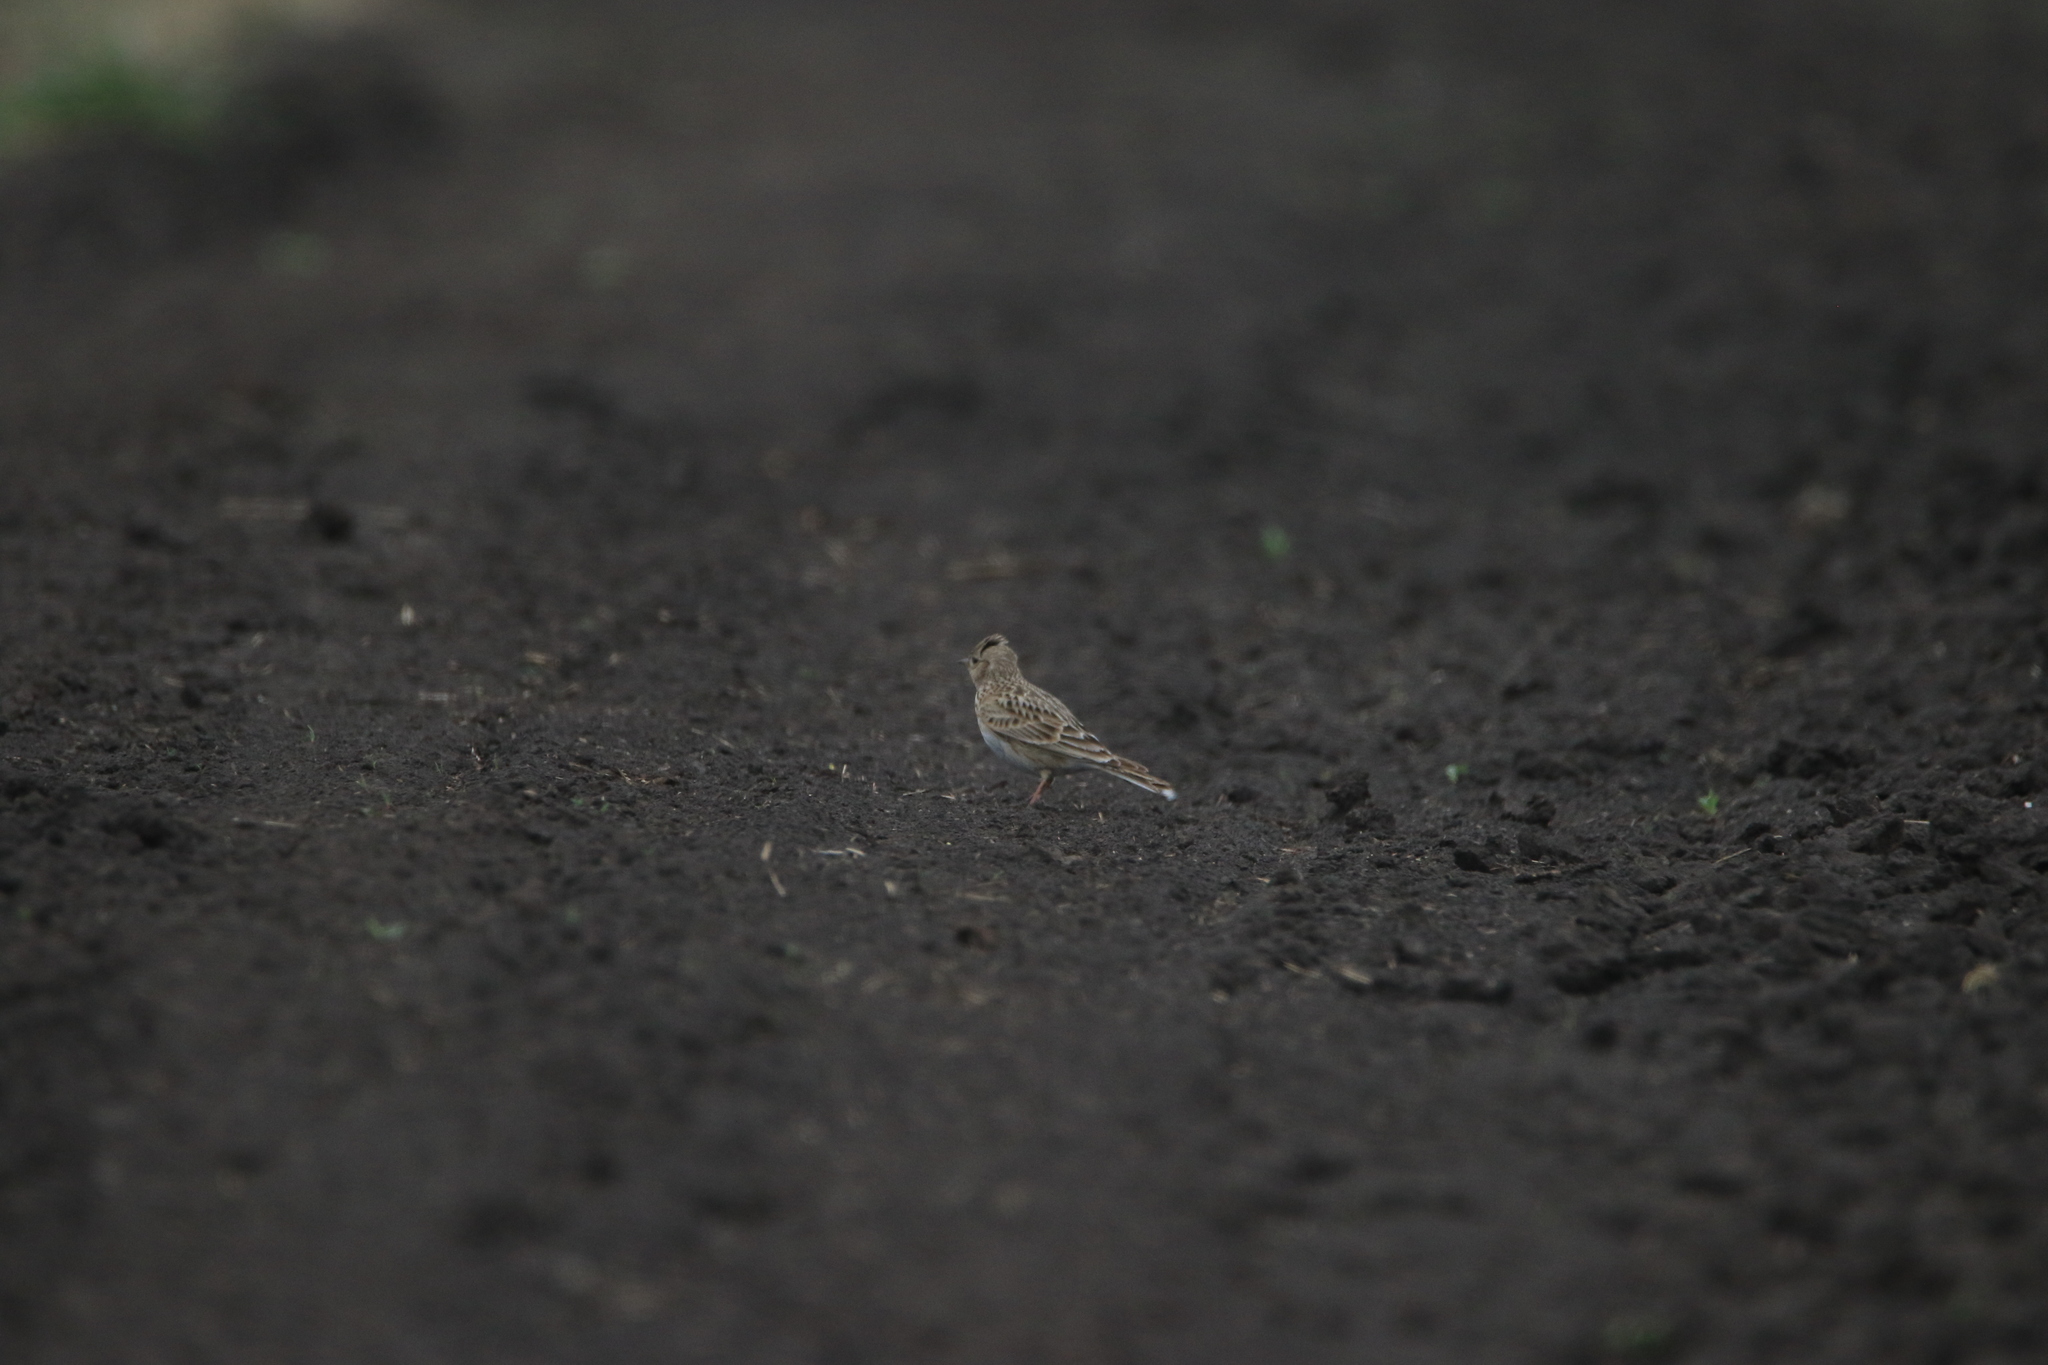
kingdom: Animalia
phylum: Chordata
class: Aves
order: Passeriformes
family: Alaudidae
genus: Alauda
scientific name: Alauda arvensis
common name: Eurasian skylark
